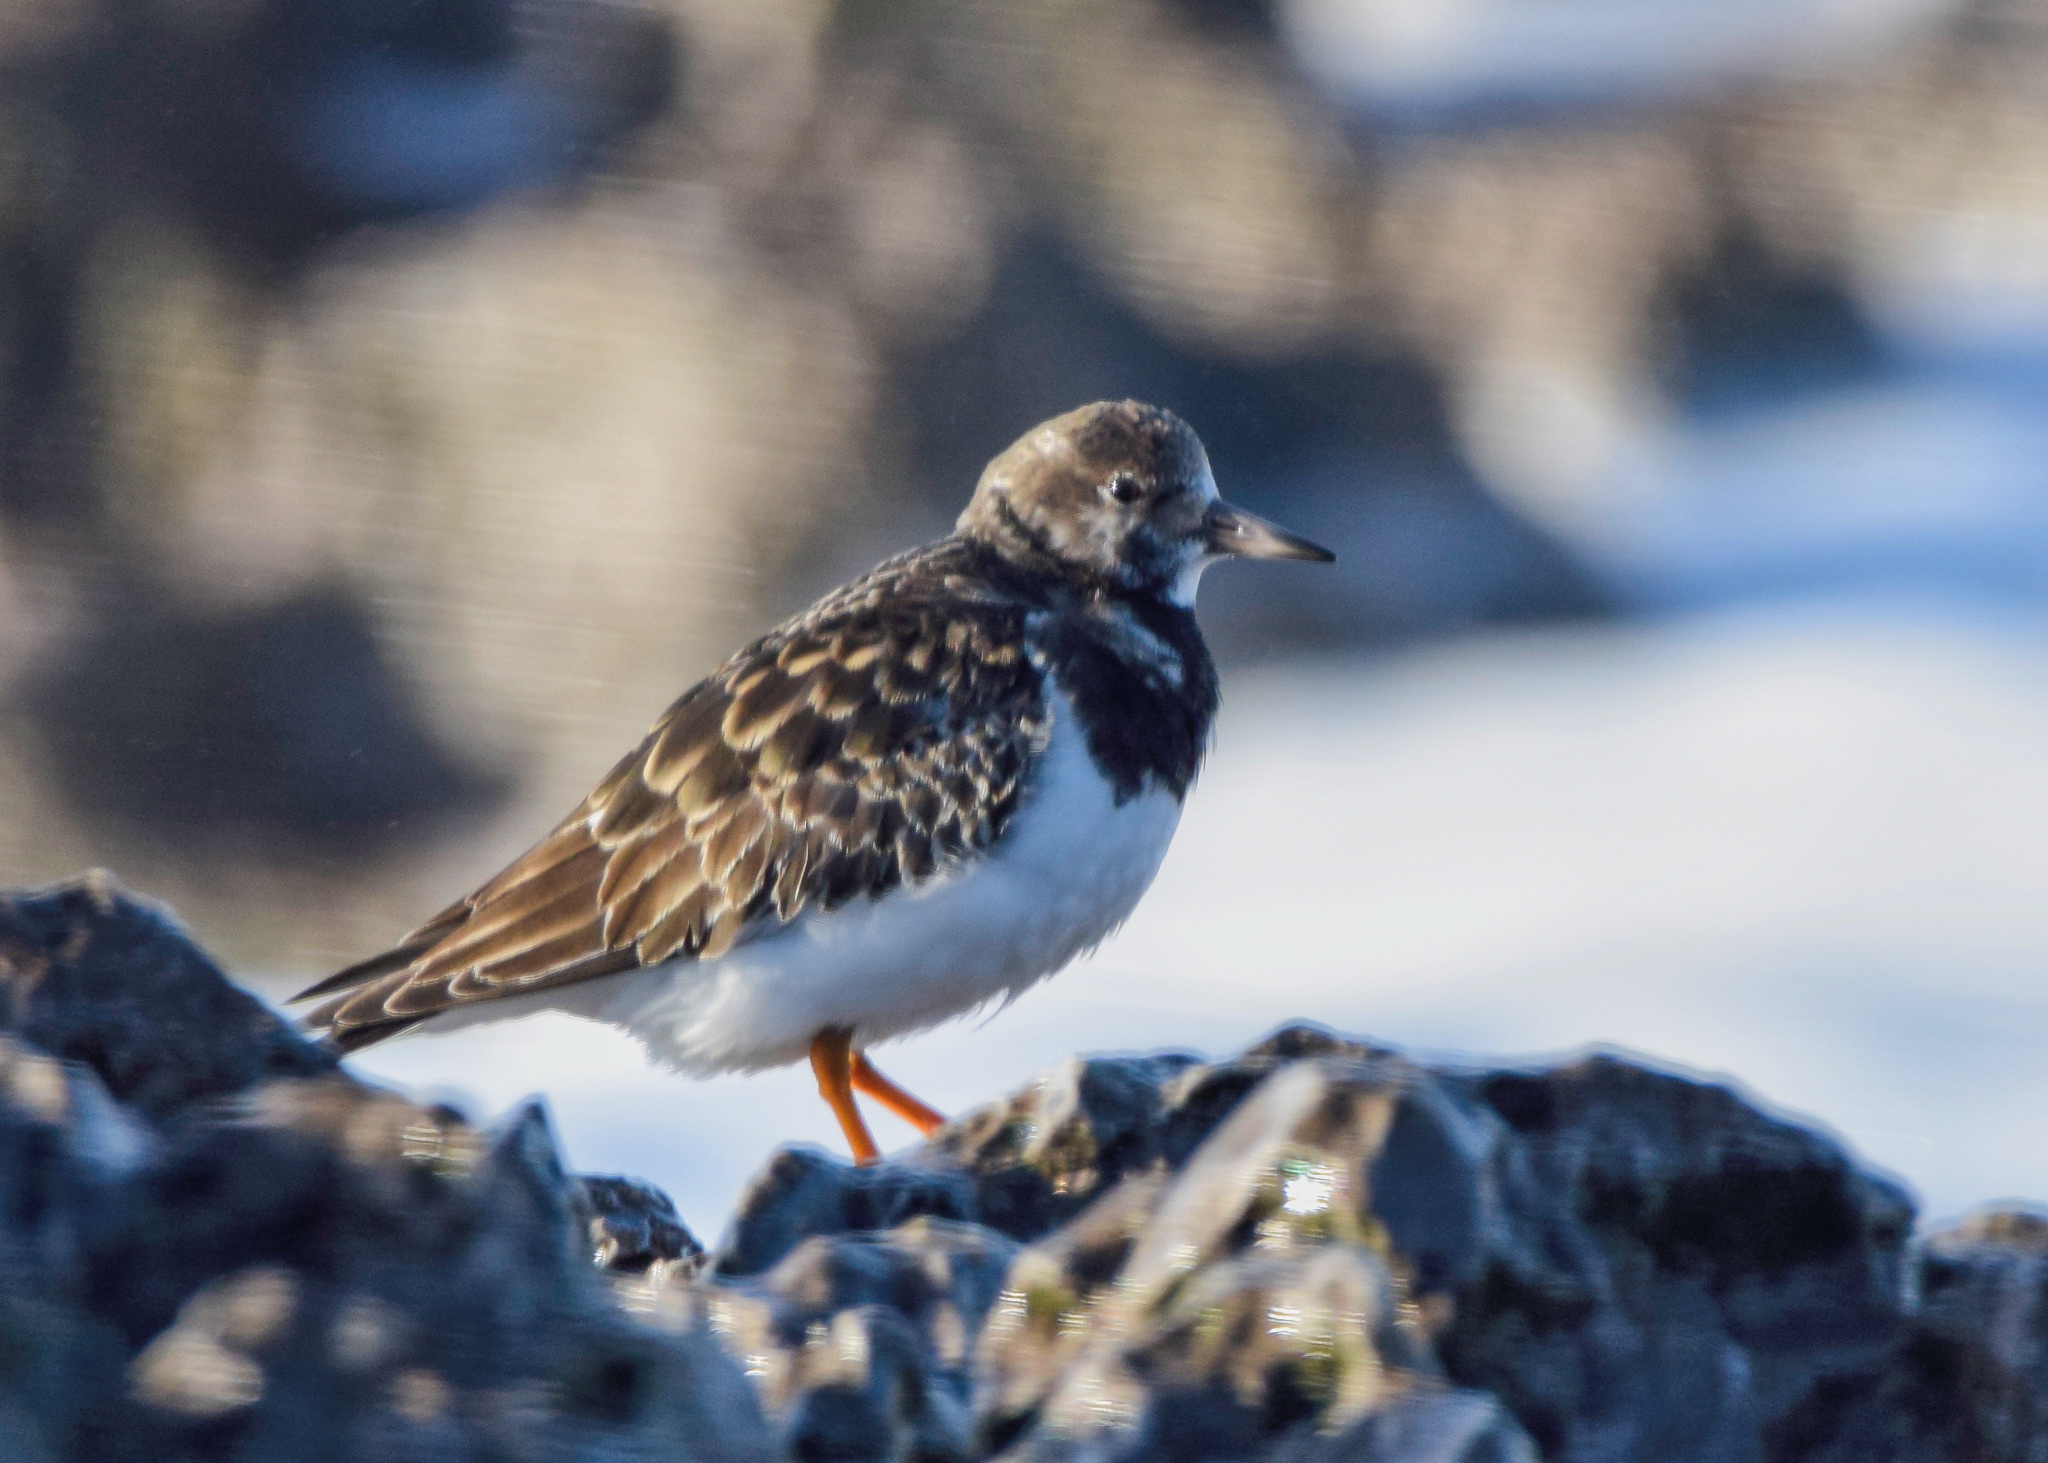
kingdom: Animalia
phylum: Chordata
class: Aves
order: Charadriiformes
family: Scolopacidae
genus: Arenaria
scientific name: Arenaria interpres
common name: Ruddy turnstone
